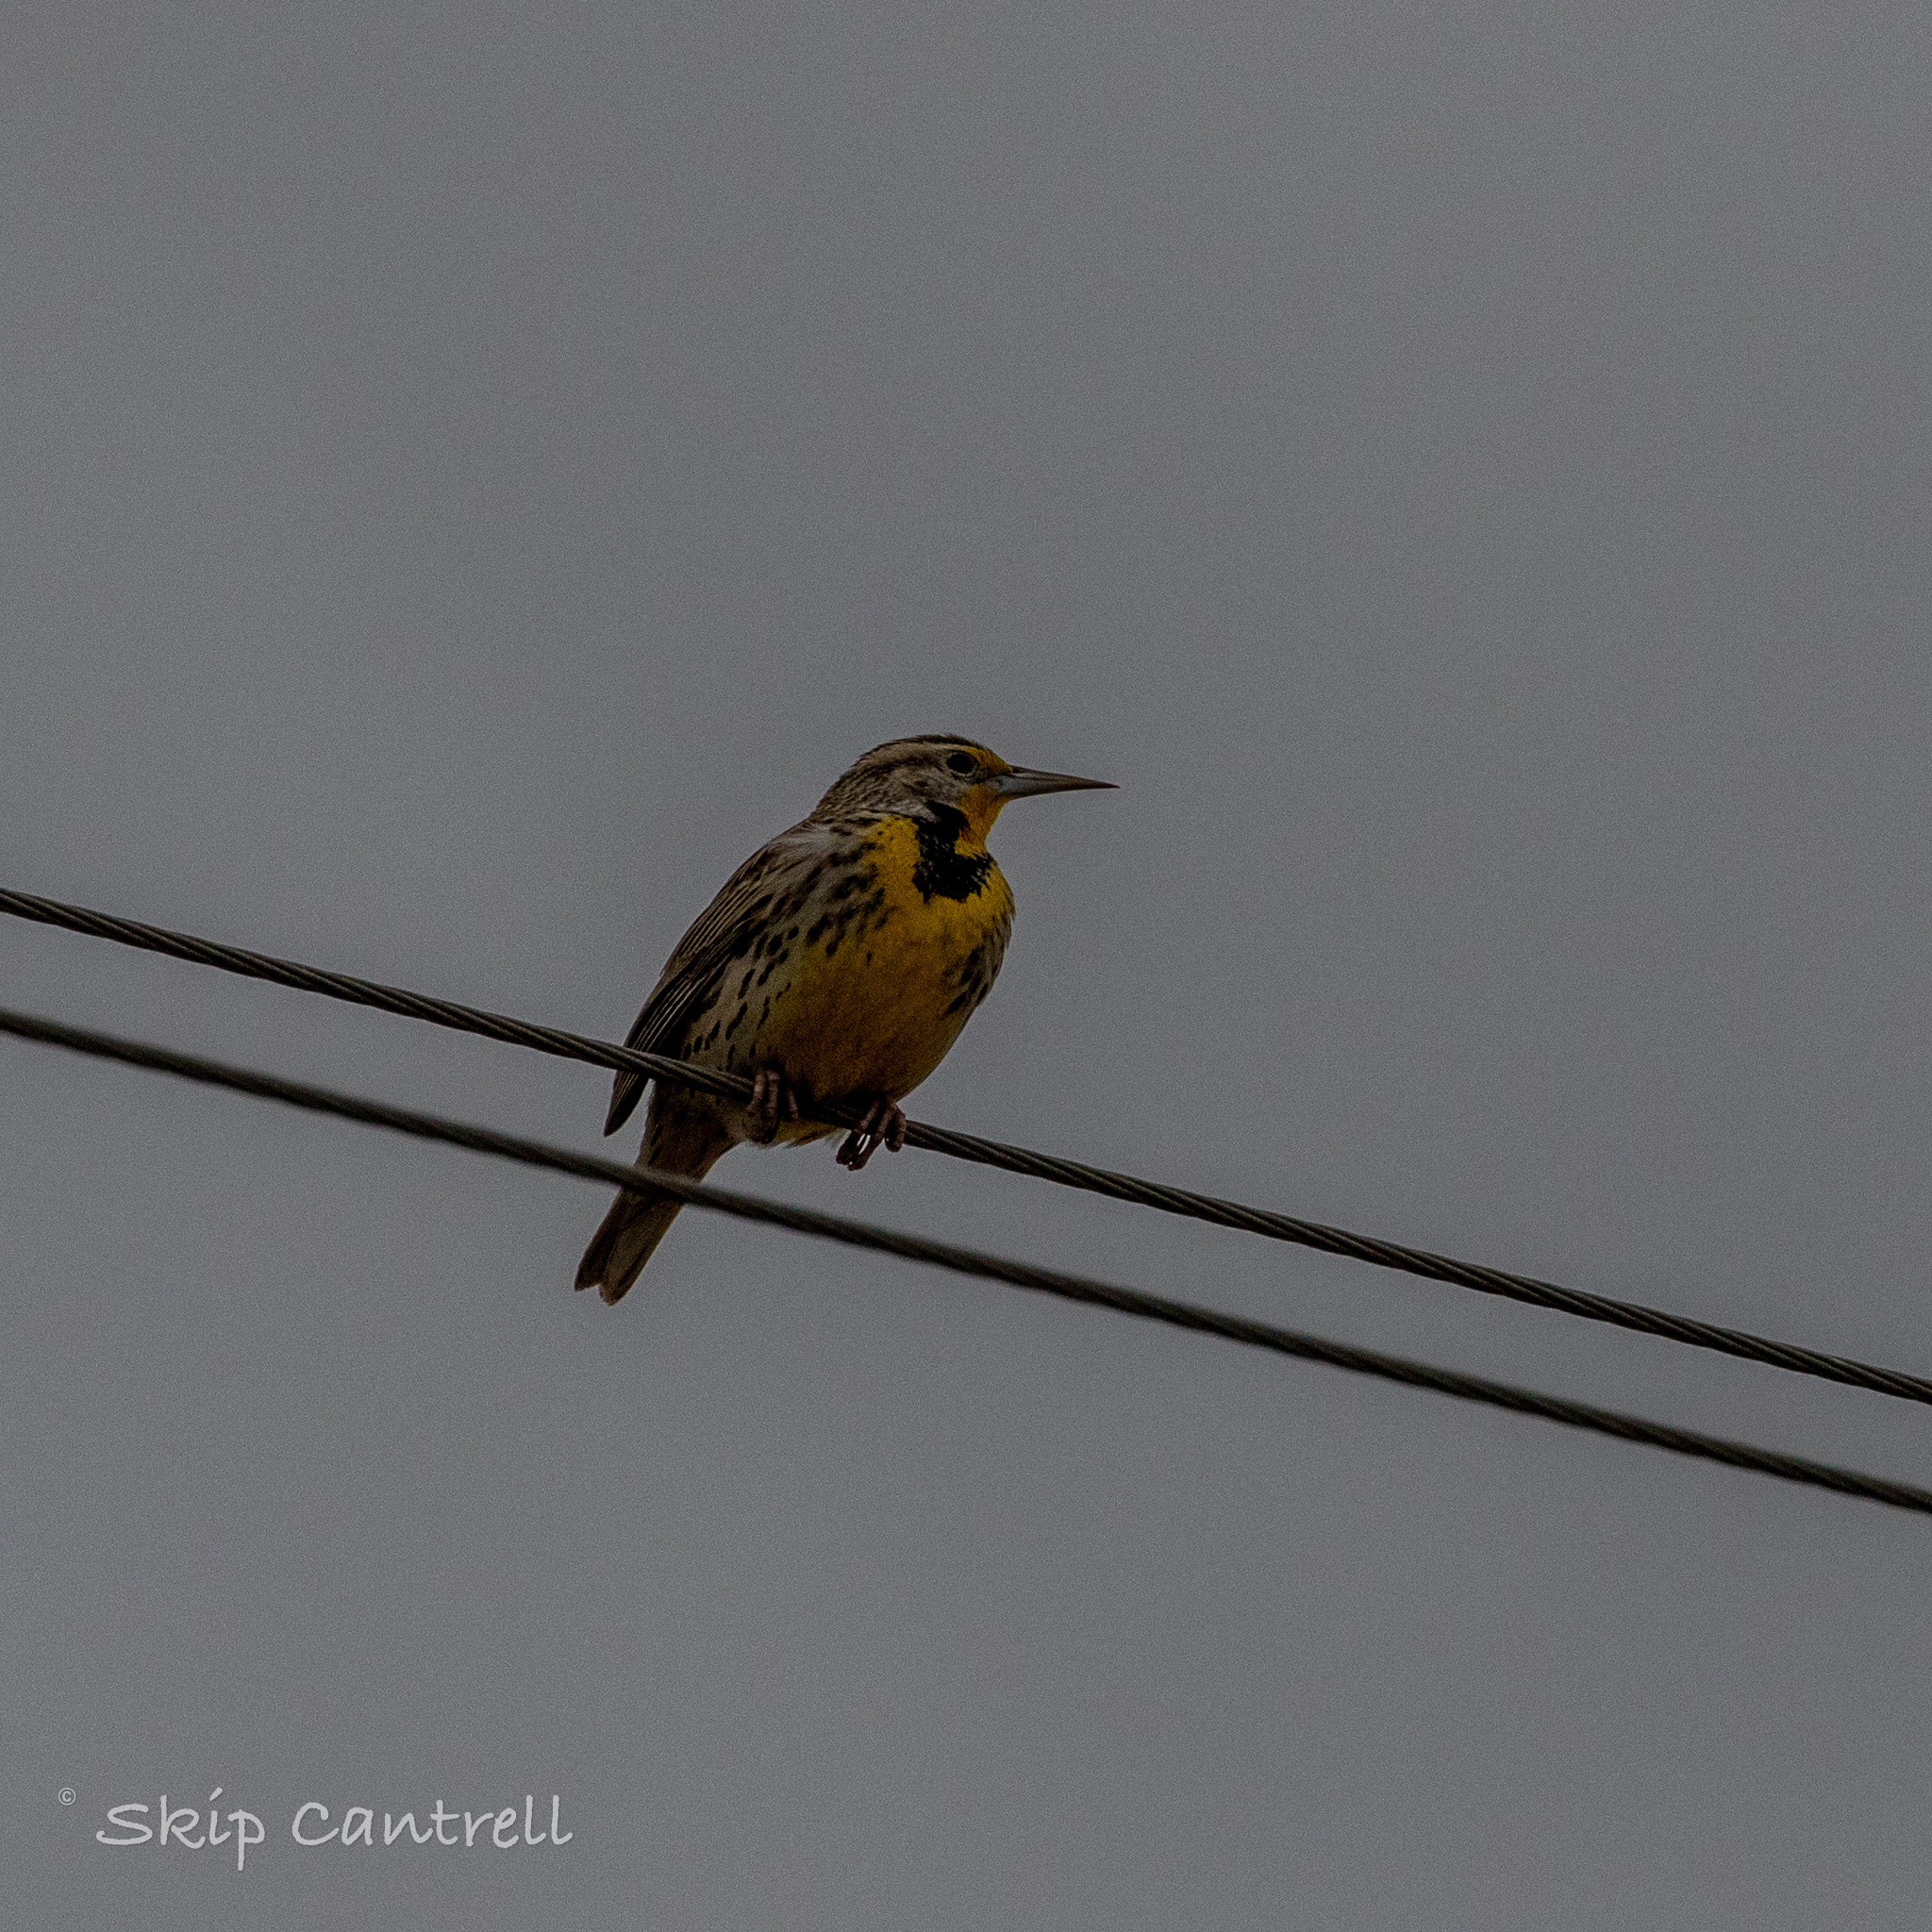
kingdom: Animalia
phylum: Chordata
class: Aves
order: Passeriformes
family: Icteridae
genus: Sturnella
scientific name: Sturnella neglecta
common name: Western meadowlark
